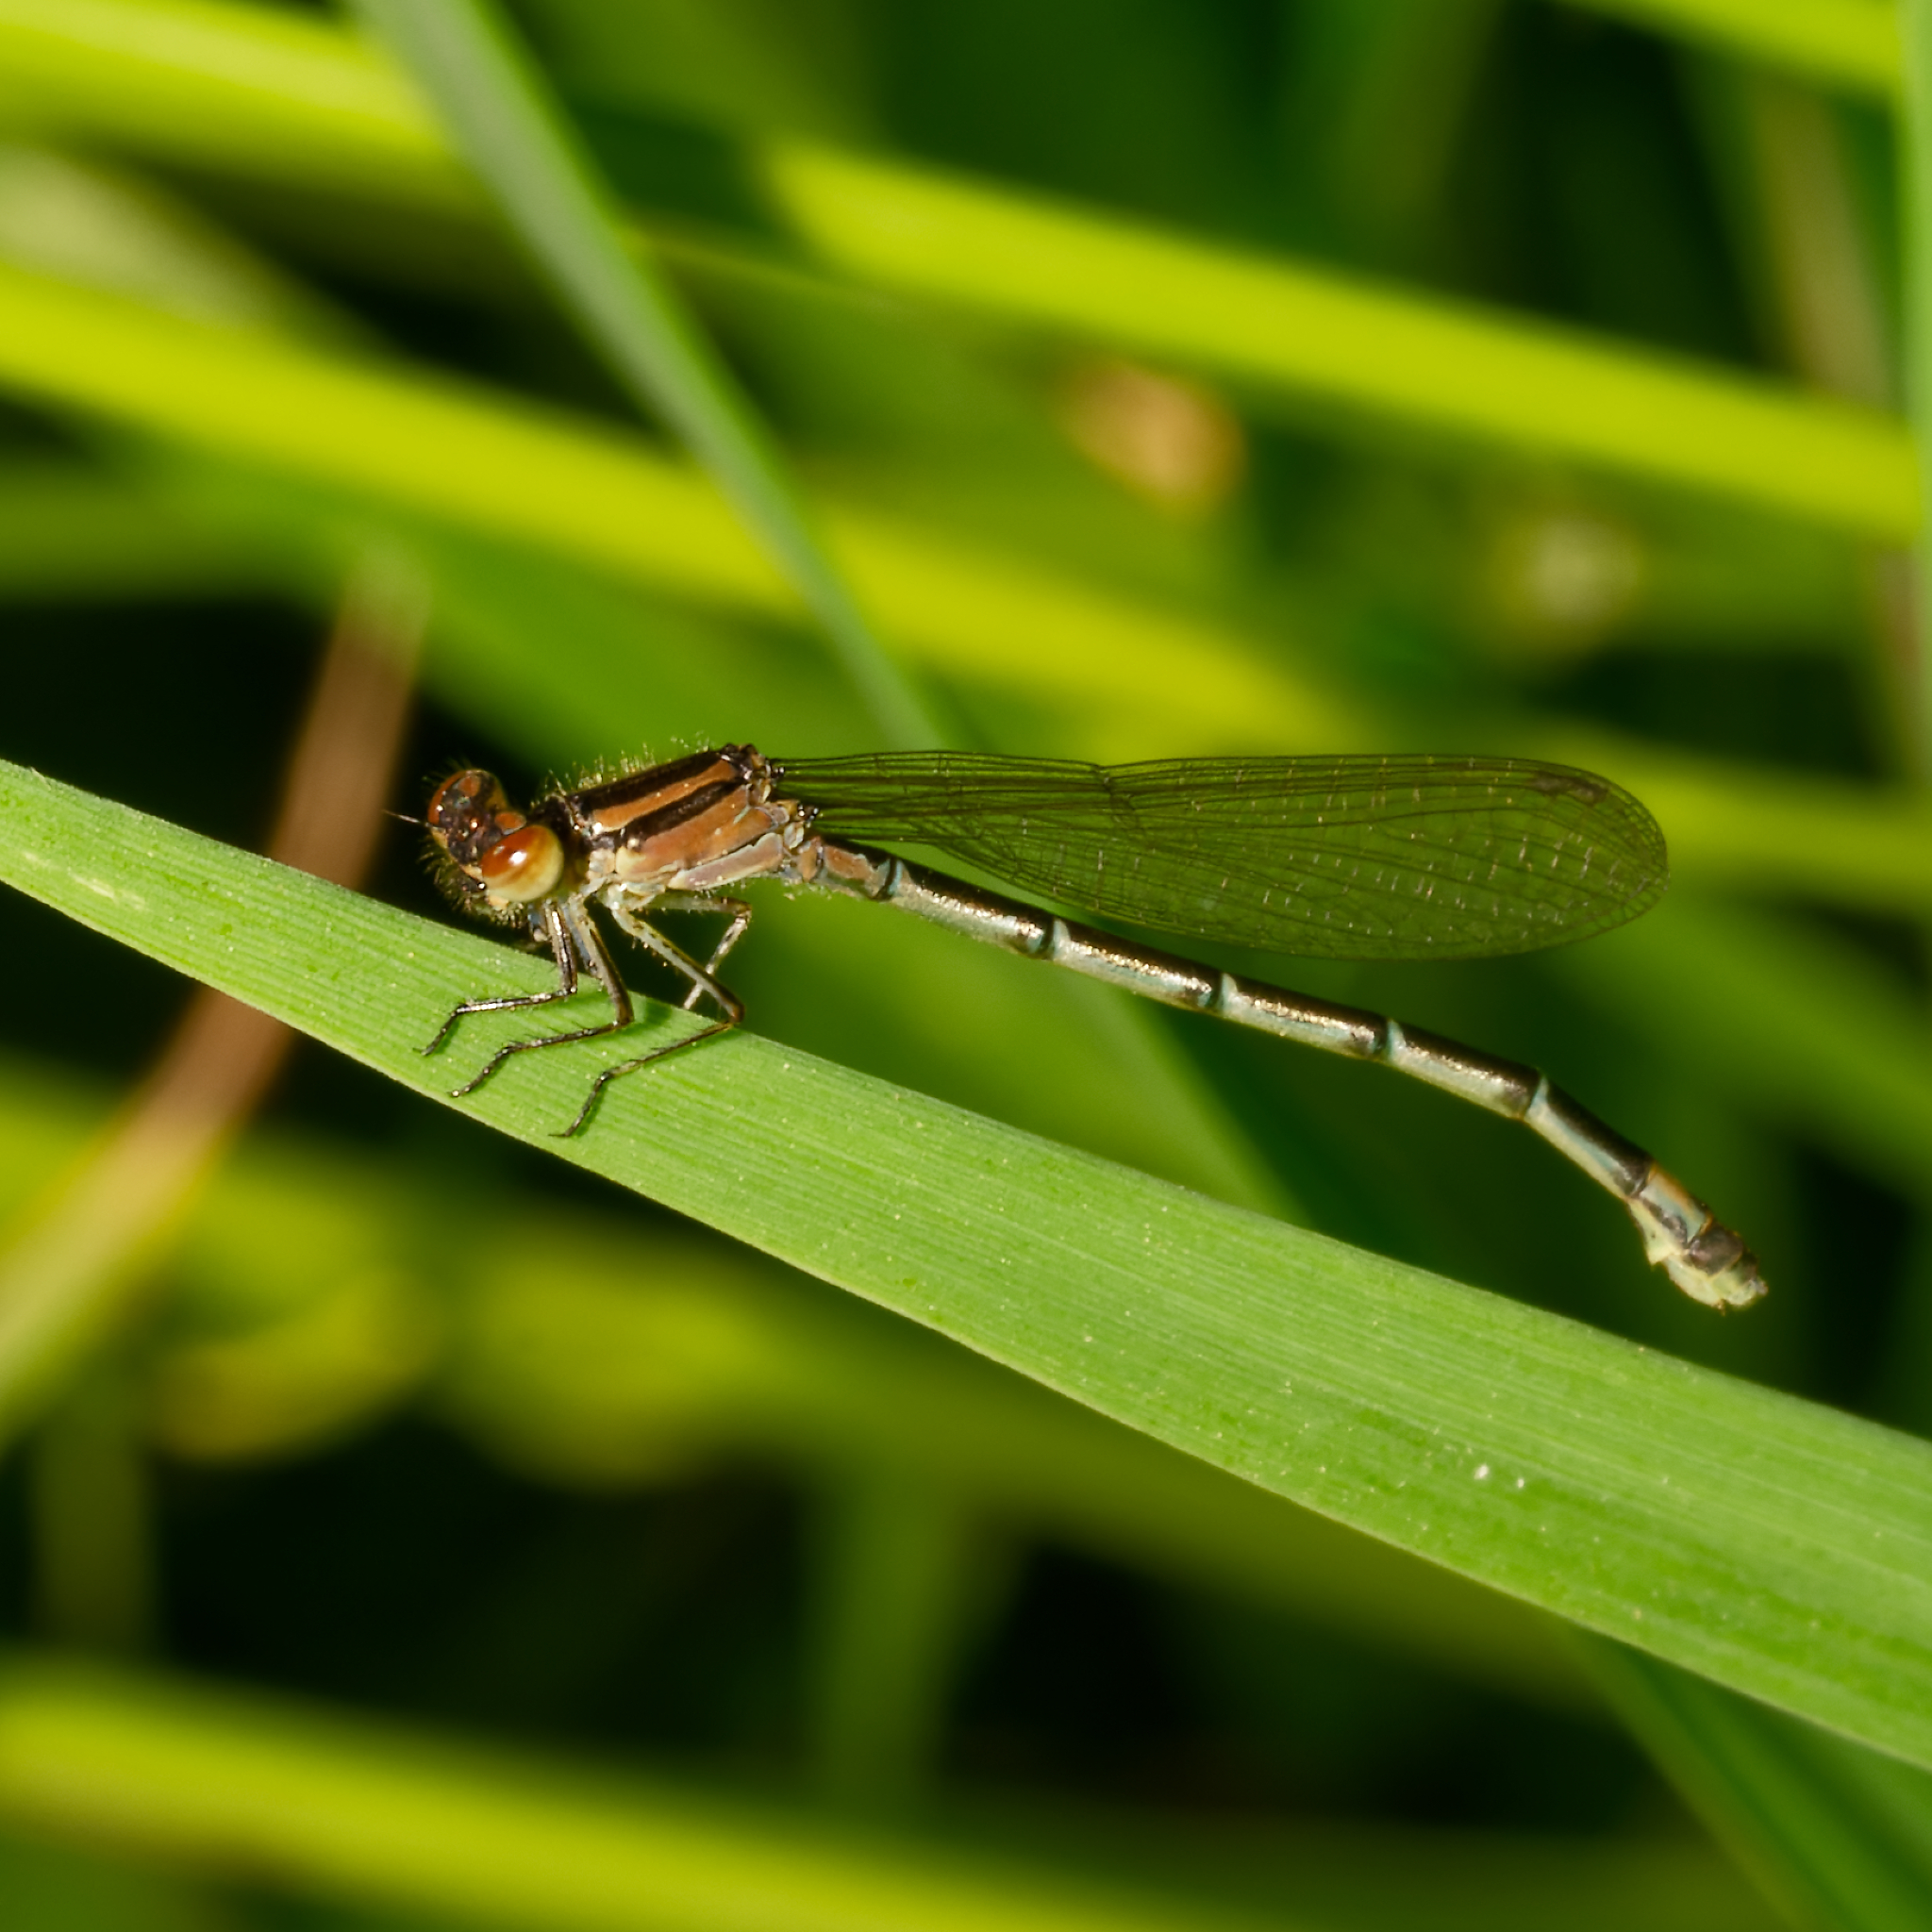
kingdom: Animalia
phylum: Arthropoda
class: Insecta
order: Odonata
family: Coenagrionidae
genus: Enallagma
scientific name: Enallagma geminatum
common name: Skimming bluet
